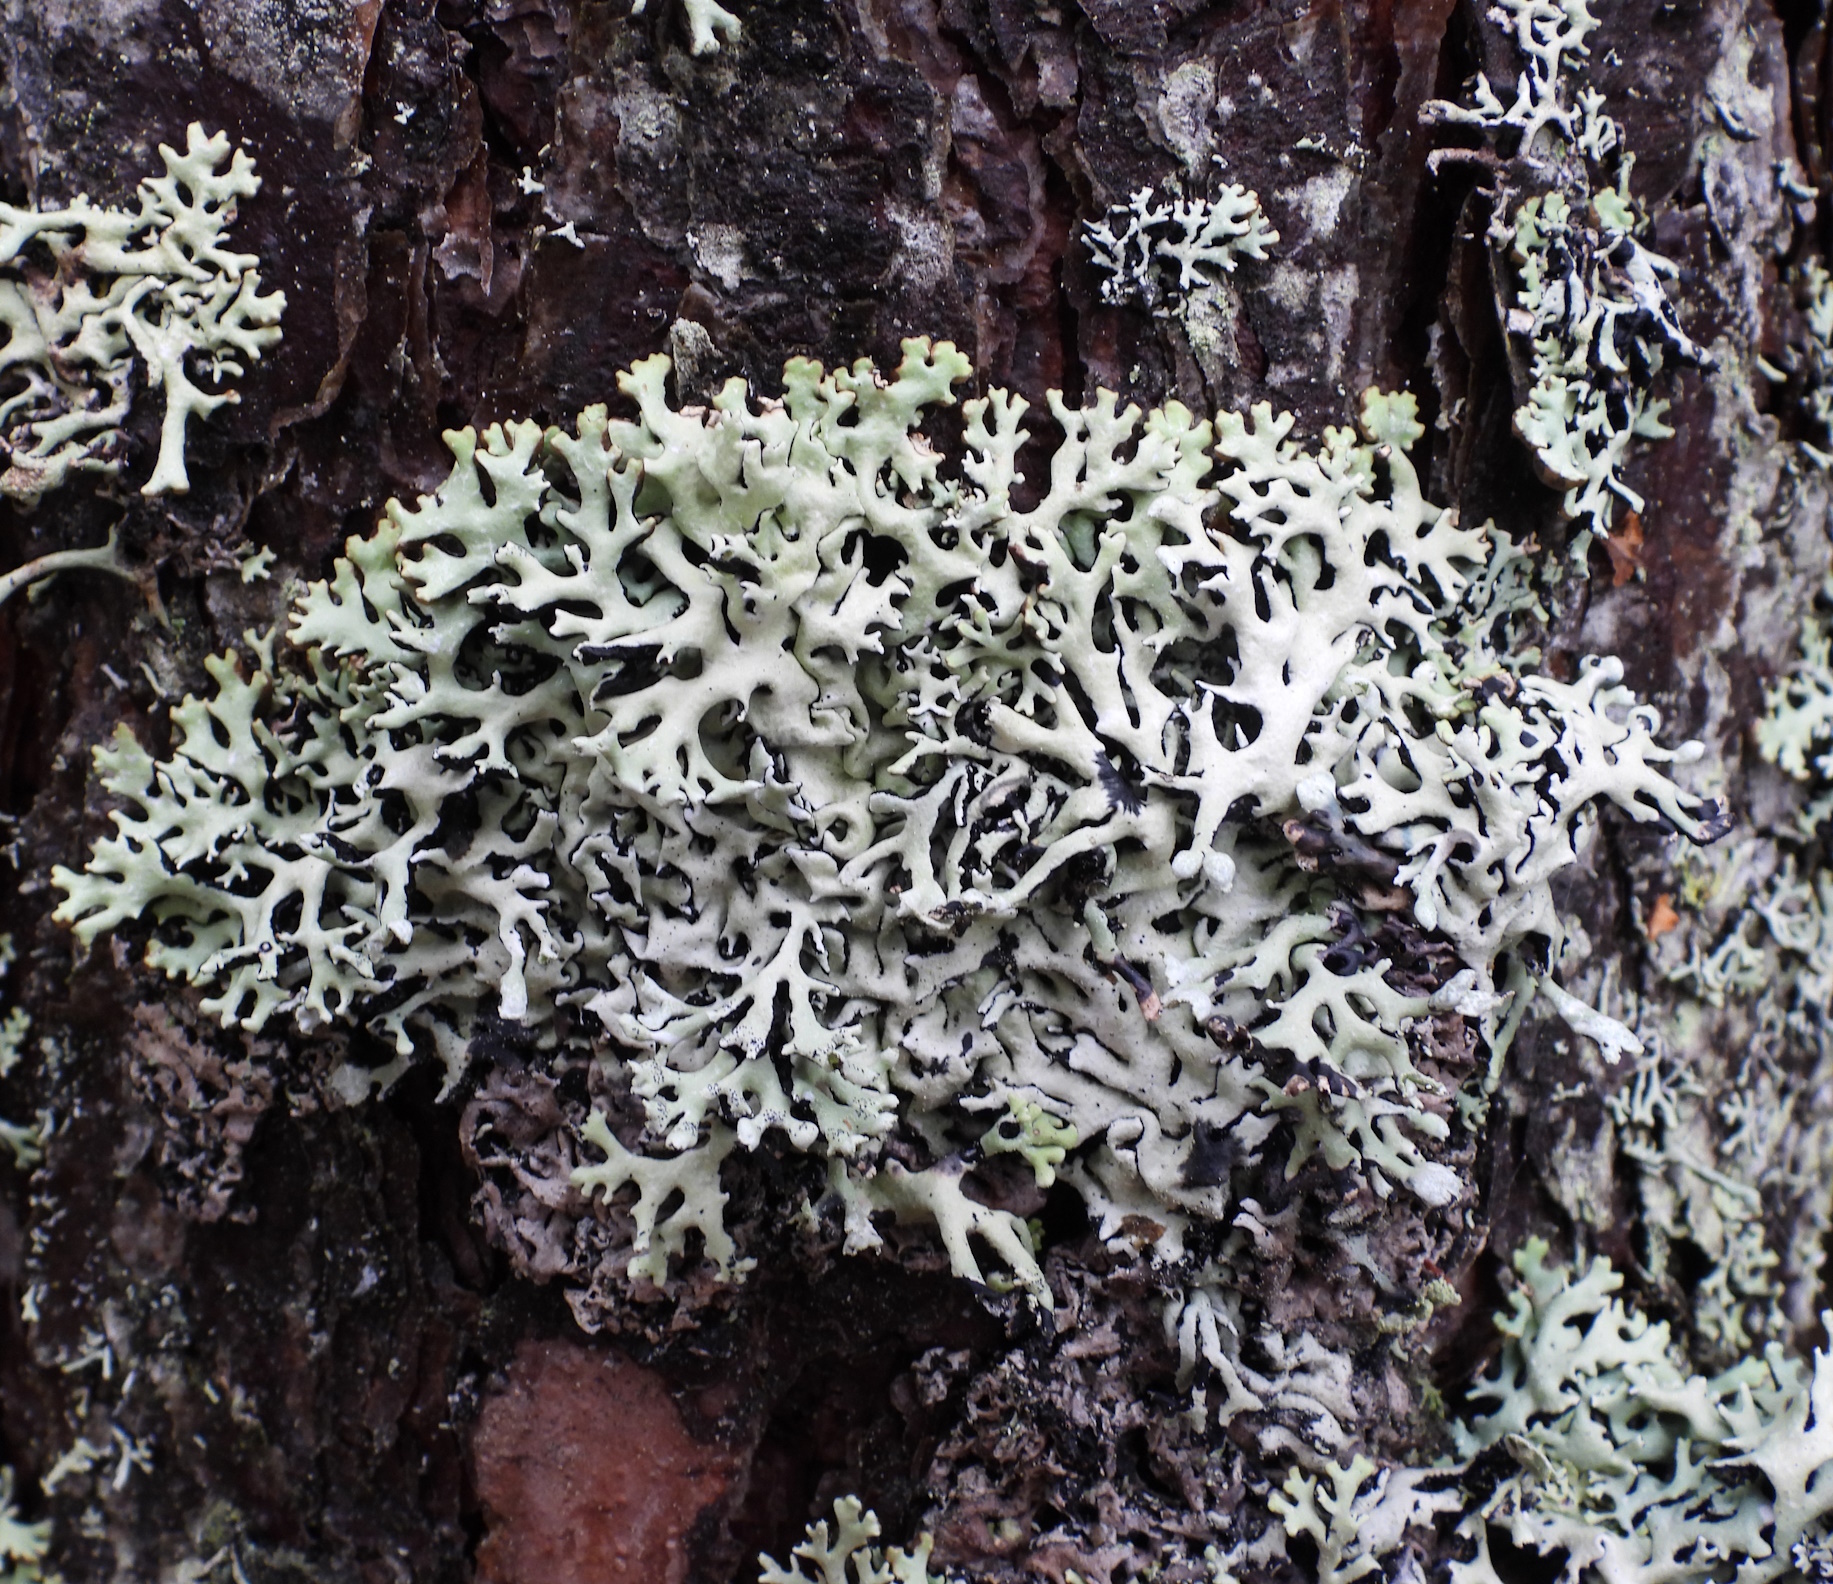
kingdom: Fungi
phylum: Ascomycota
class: Lecanoromycetes
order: Lecanorales
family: Parmeliaceae
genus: Hypogymnia
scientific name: Hypogymnia physodes
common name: Dark crottle
